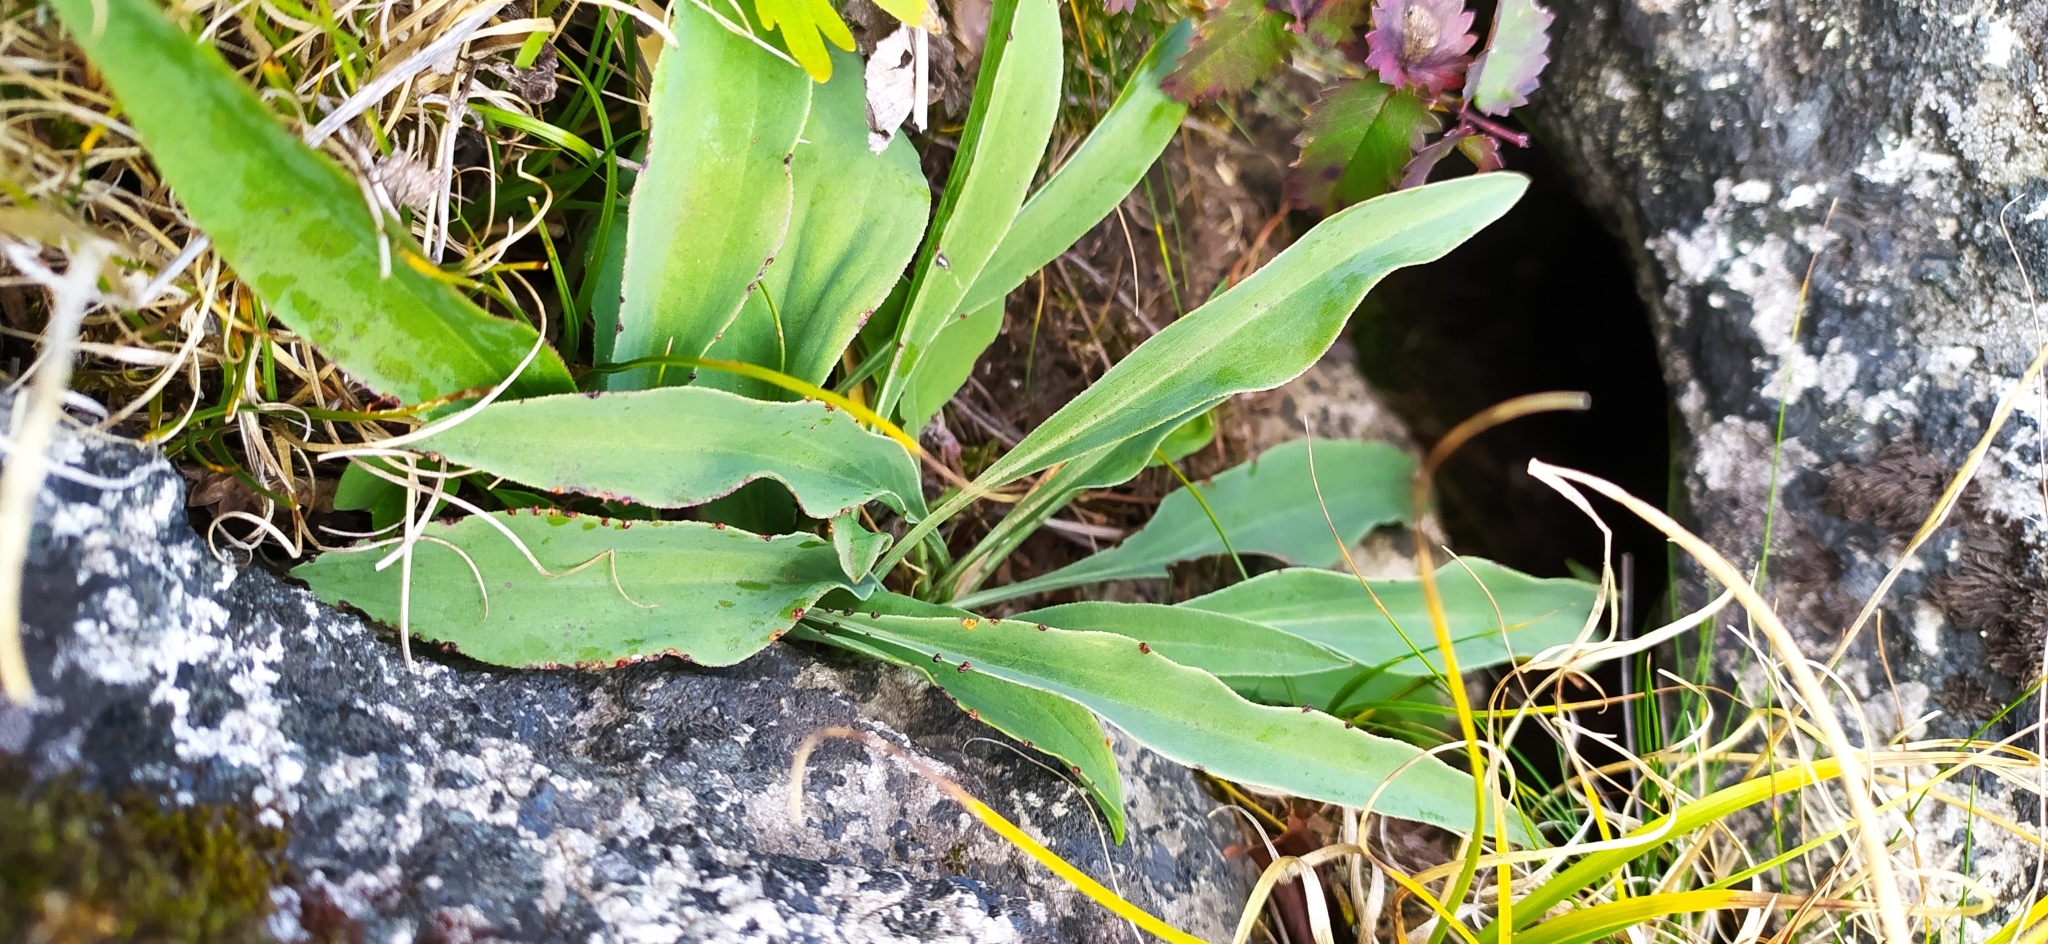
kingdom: Plantae
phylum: Tracheophyta
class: Magnoliopsida
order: Asterales
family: Asteraceae
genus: Scorzonera
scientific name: Scorzonera glabra
